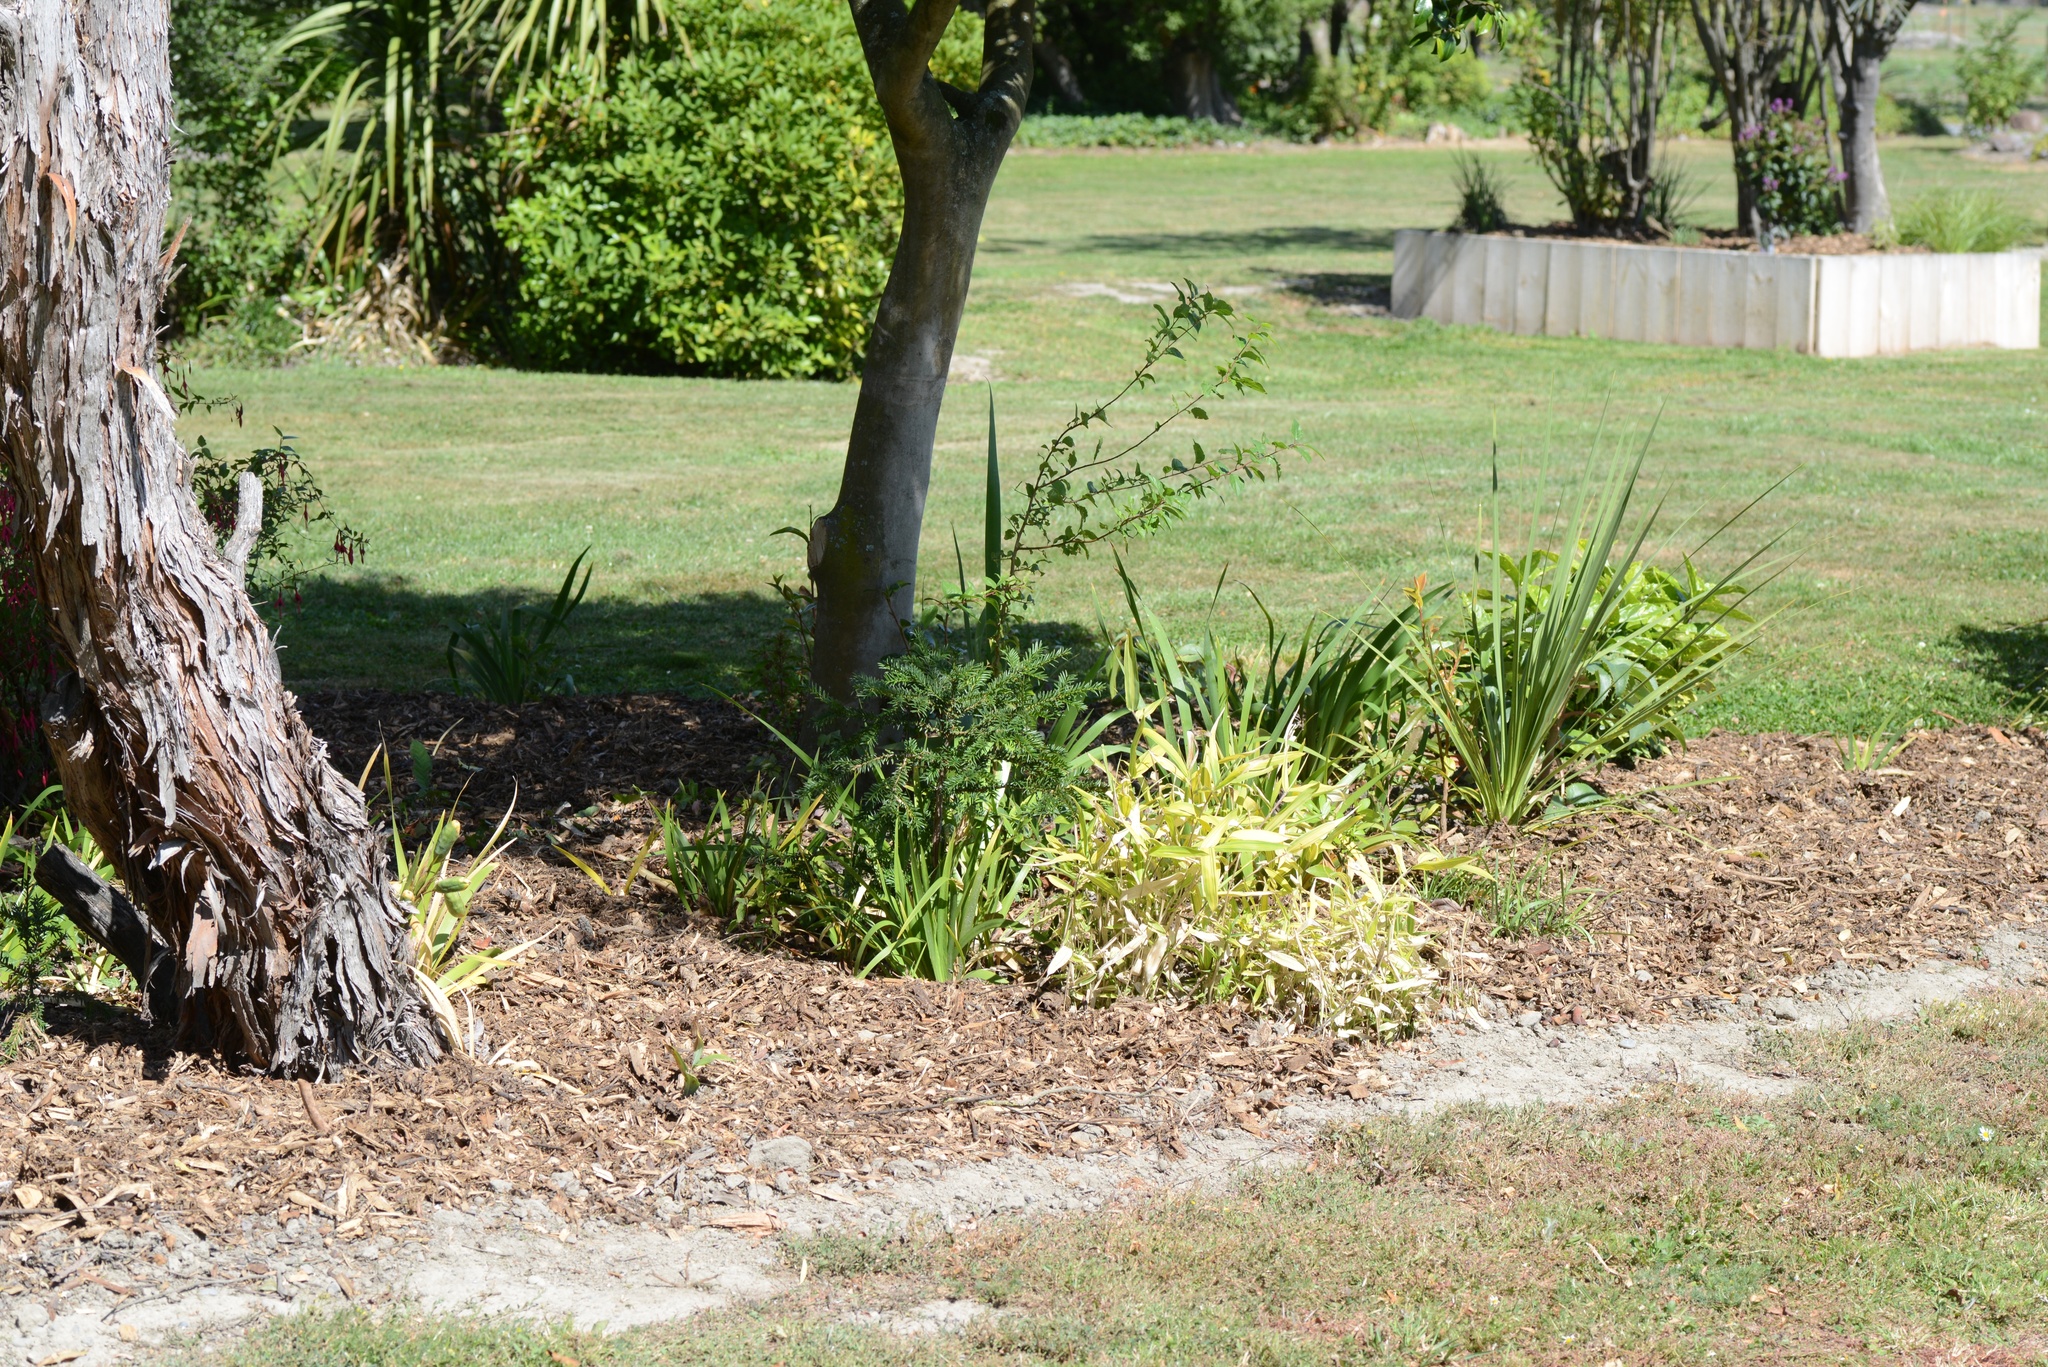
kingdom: Plantae
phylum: Tracheophyta
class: Pinopsida
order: Pinales
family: Taxaceae
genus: Taxus
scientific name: Taxus baccata
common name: Yew
